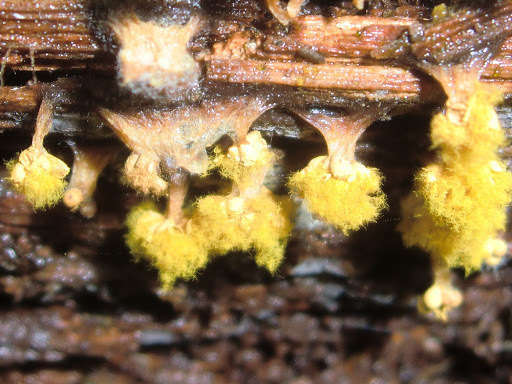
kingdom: Protozoa
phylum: Mycetozoa
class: Myxomycetes
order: Trichiales
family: Trichiaceae
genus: Oligonema
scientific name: Oligonema verrucosum
